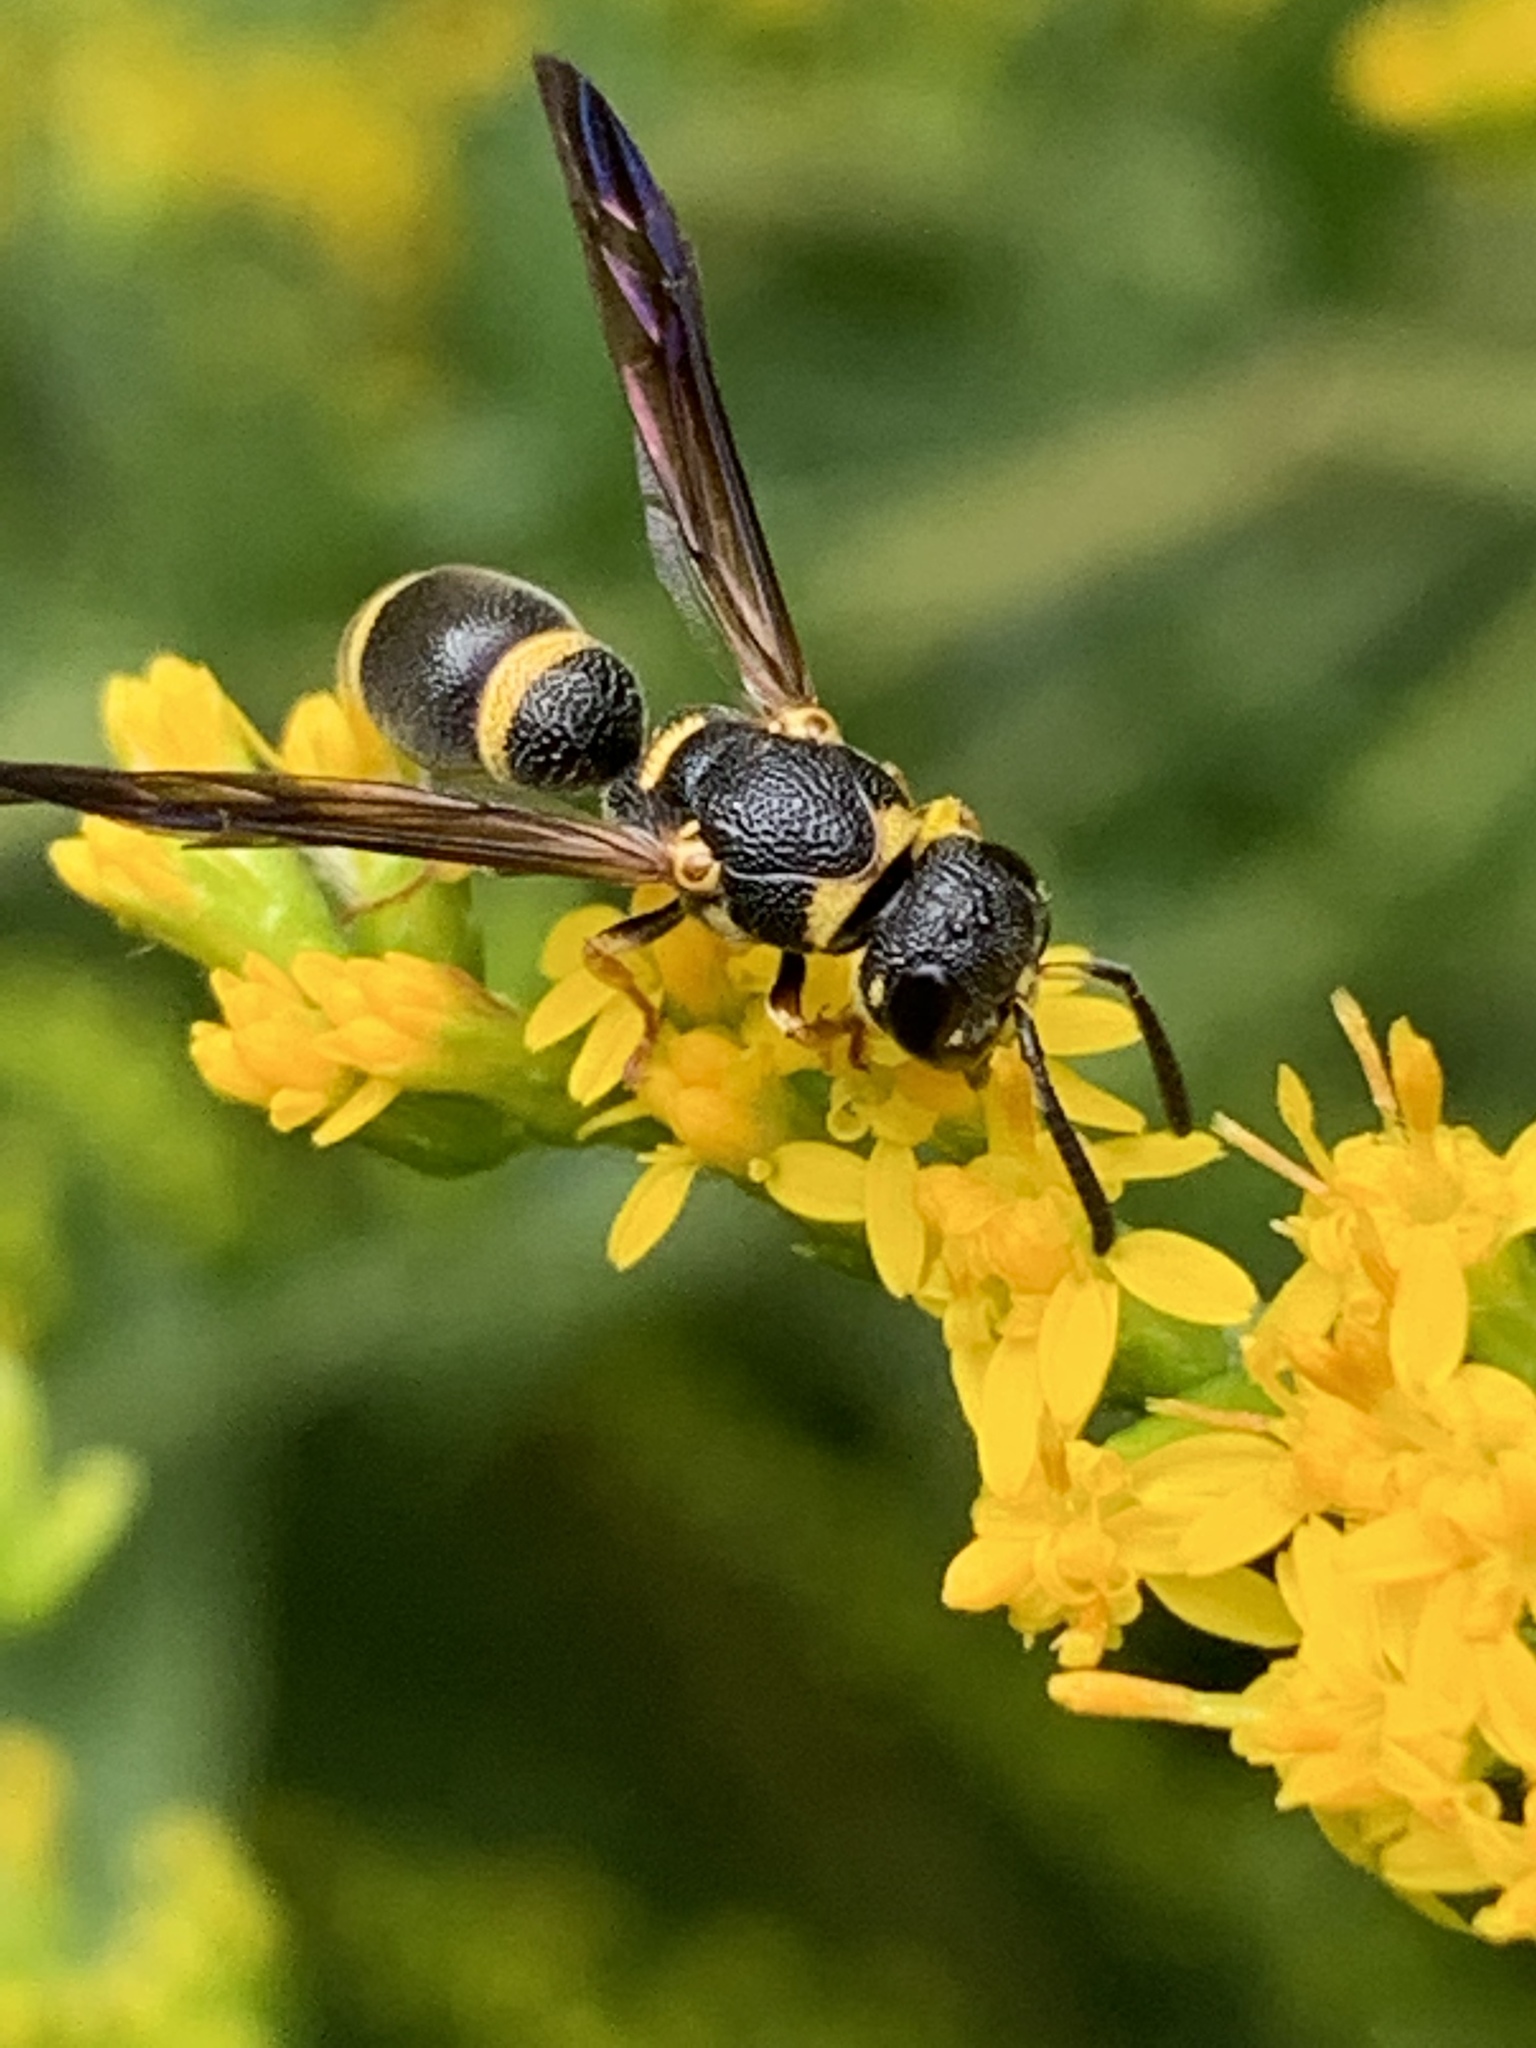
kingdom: Animalia
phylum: Arthropoda
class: Insecta
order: Hymenoptera
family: Eumenidae
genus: Parancistrocerus
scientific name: Parancistrocerus perennis
